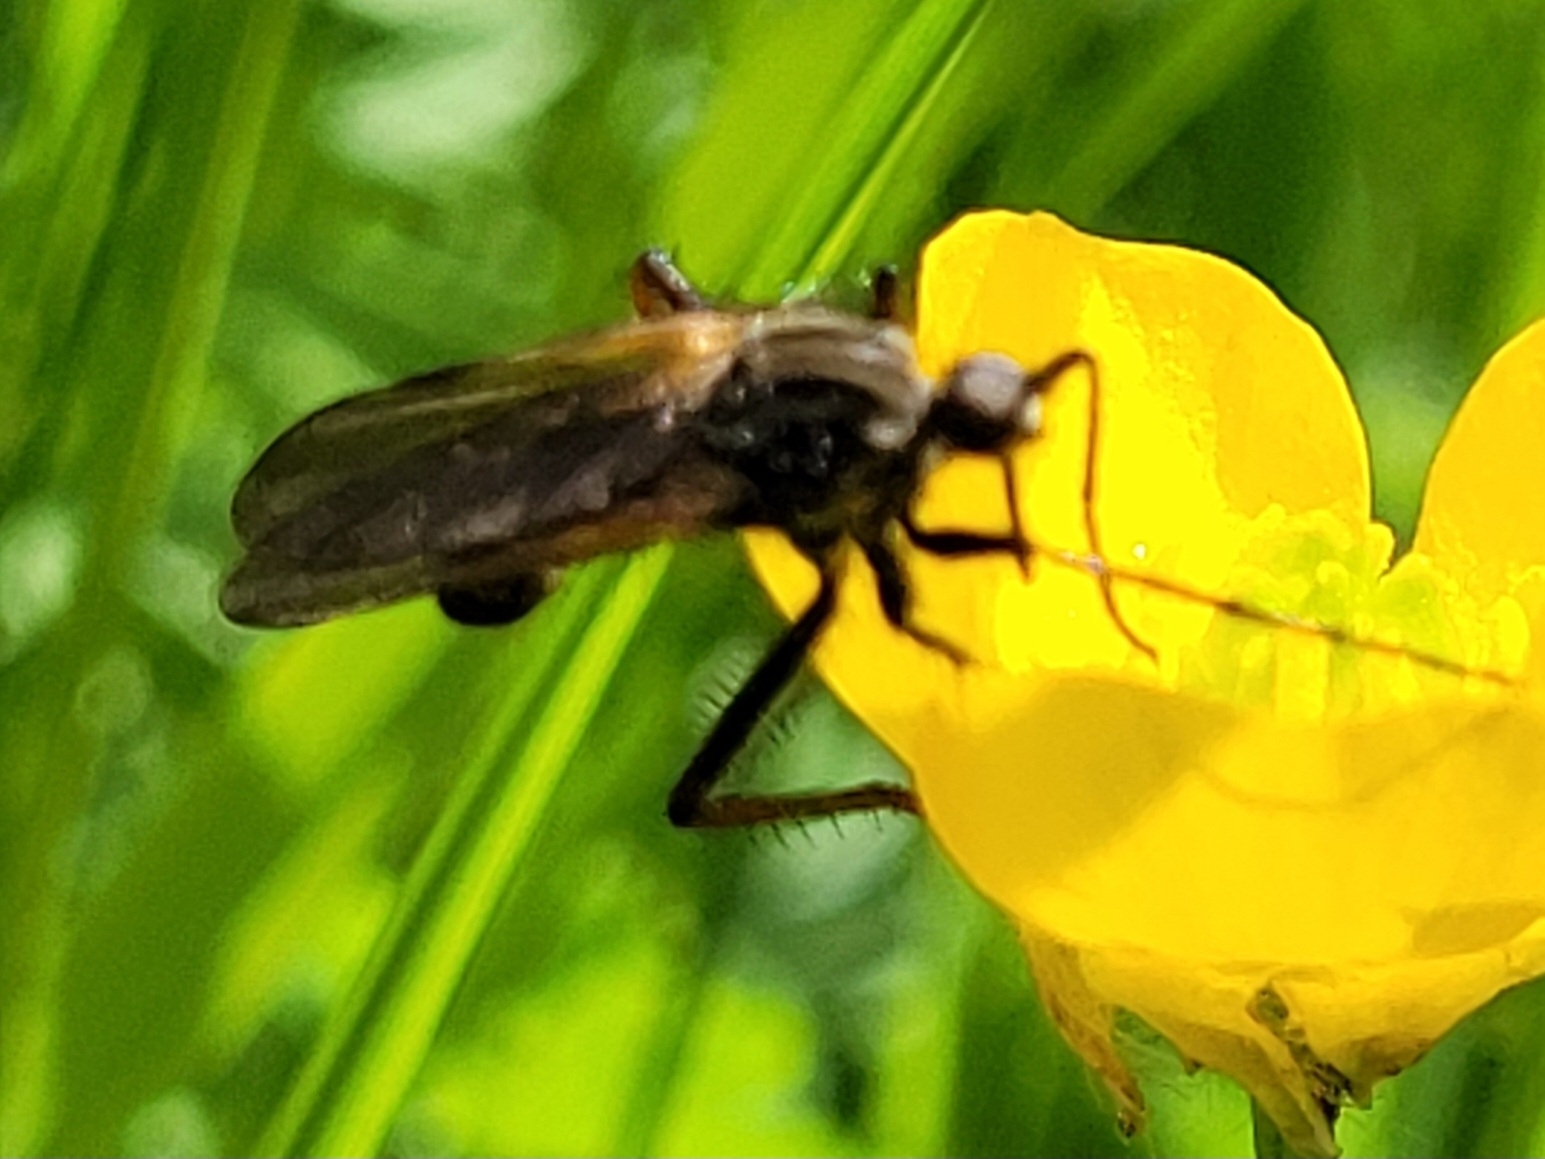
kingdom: Animalia
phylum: Arthropoda
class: Insecta
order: Diptera
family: Empididae
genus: Empis
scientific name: Empis tessellata
